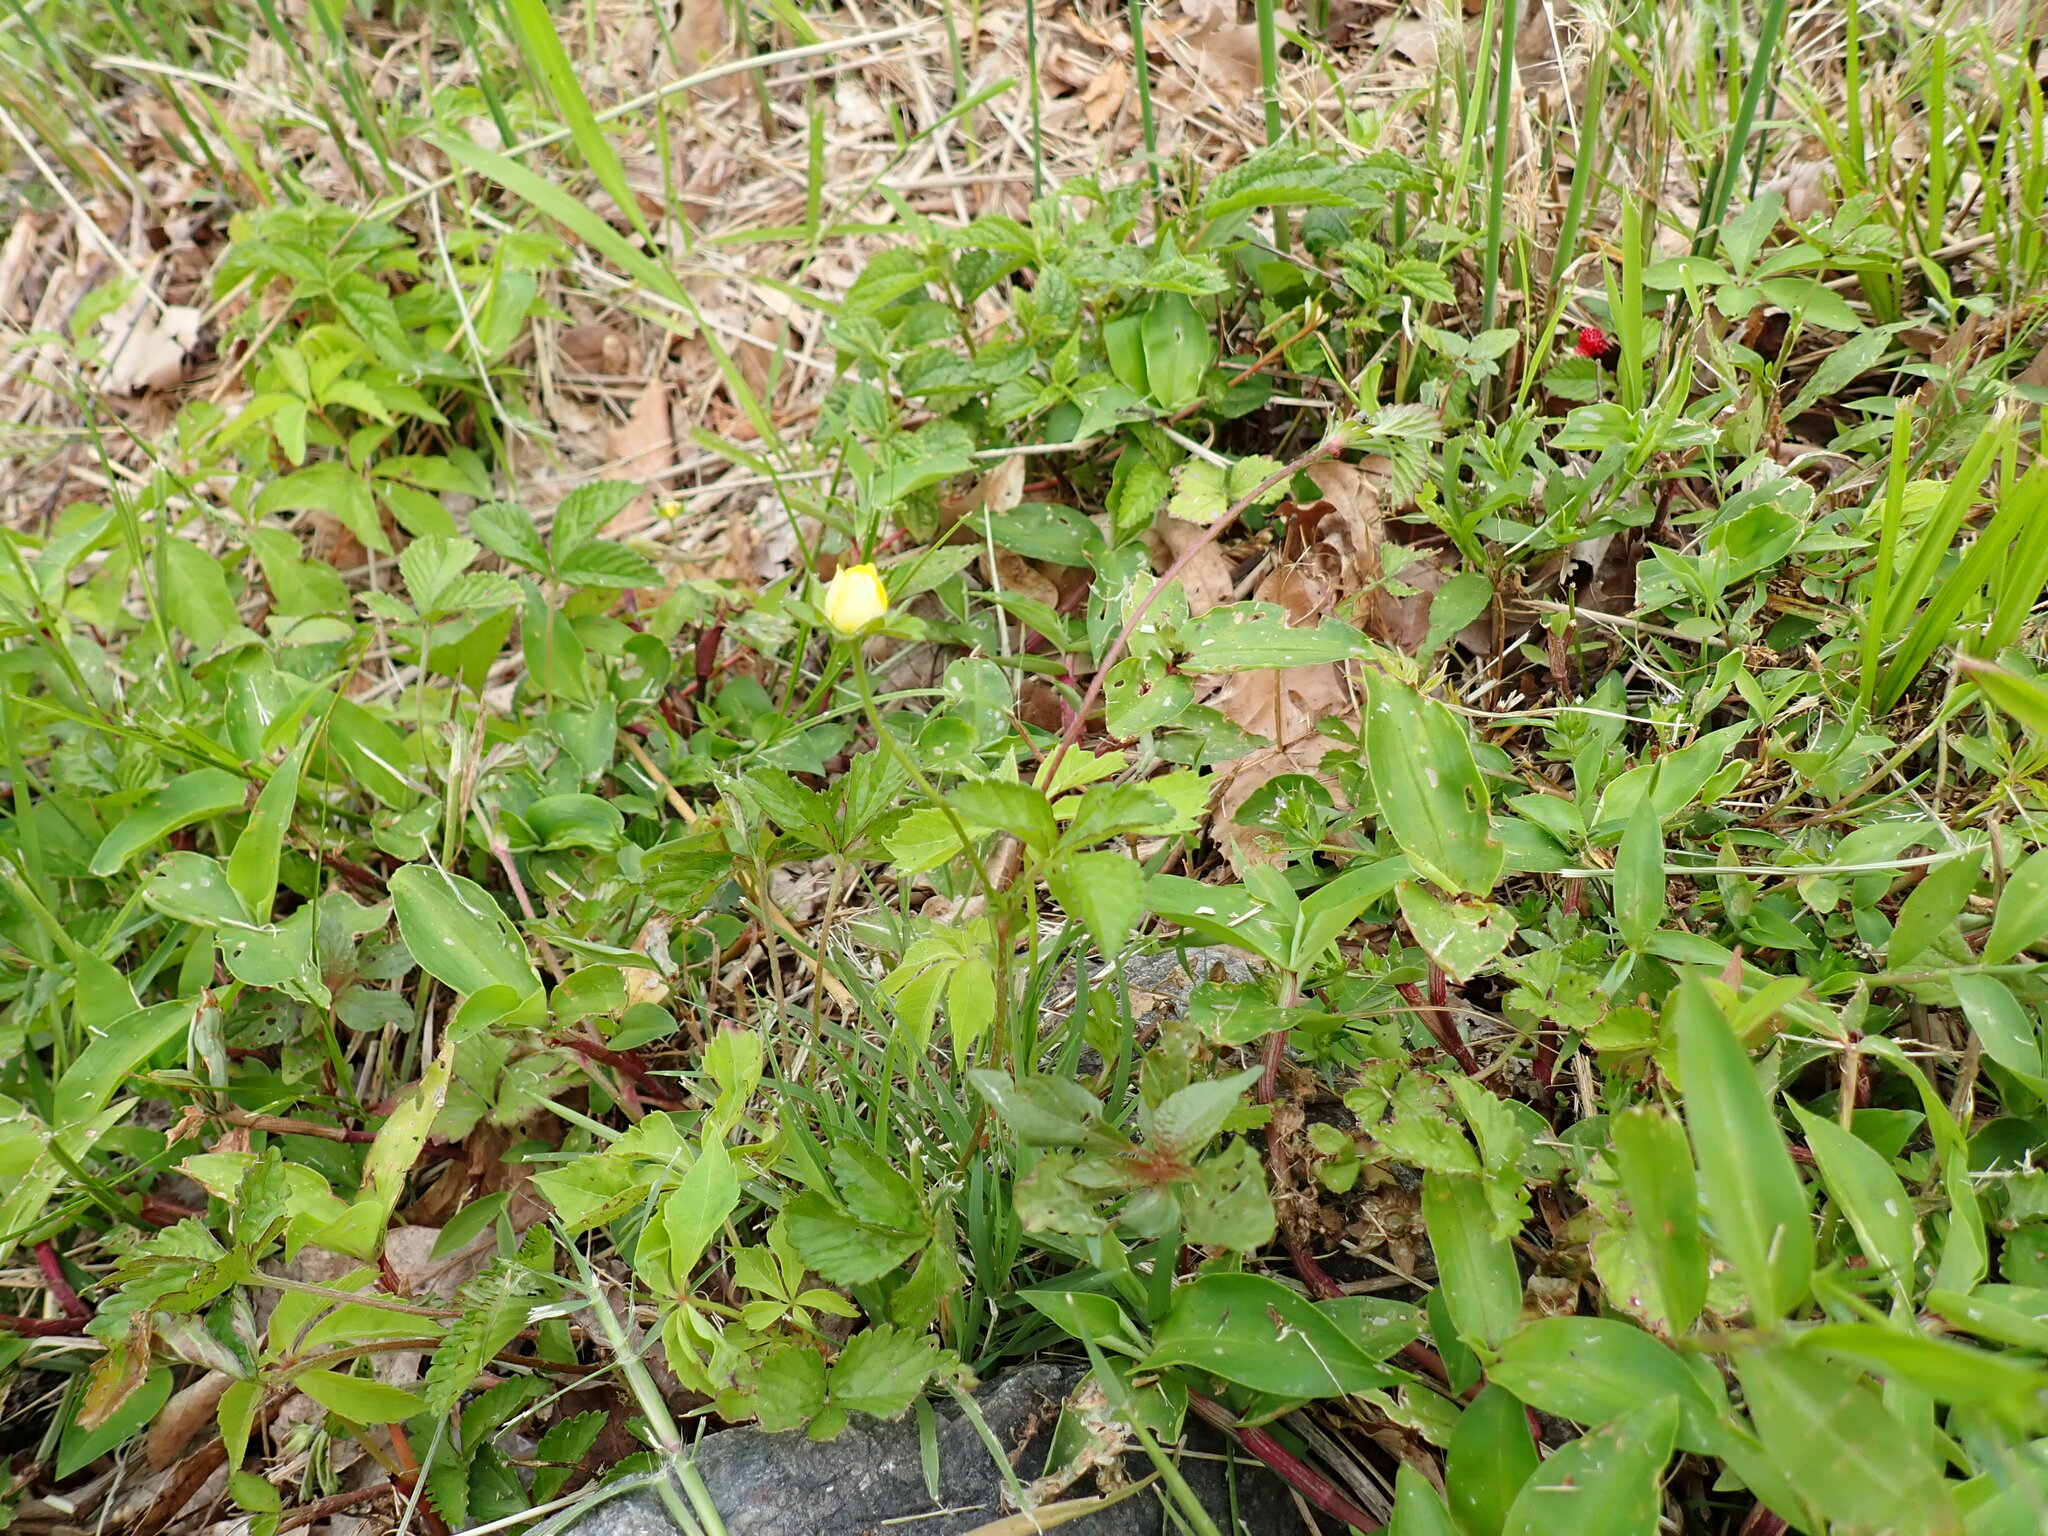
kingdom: Plantae
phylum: Tracheophyta
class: Magnoliopsida
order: Rosales
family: Rosaceae
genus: Potentilla
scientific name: Potentilla indica
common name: Yellow-flowered strawberry
